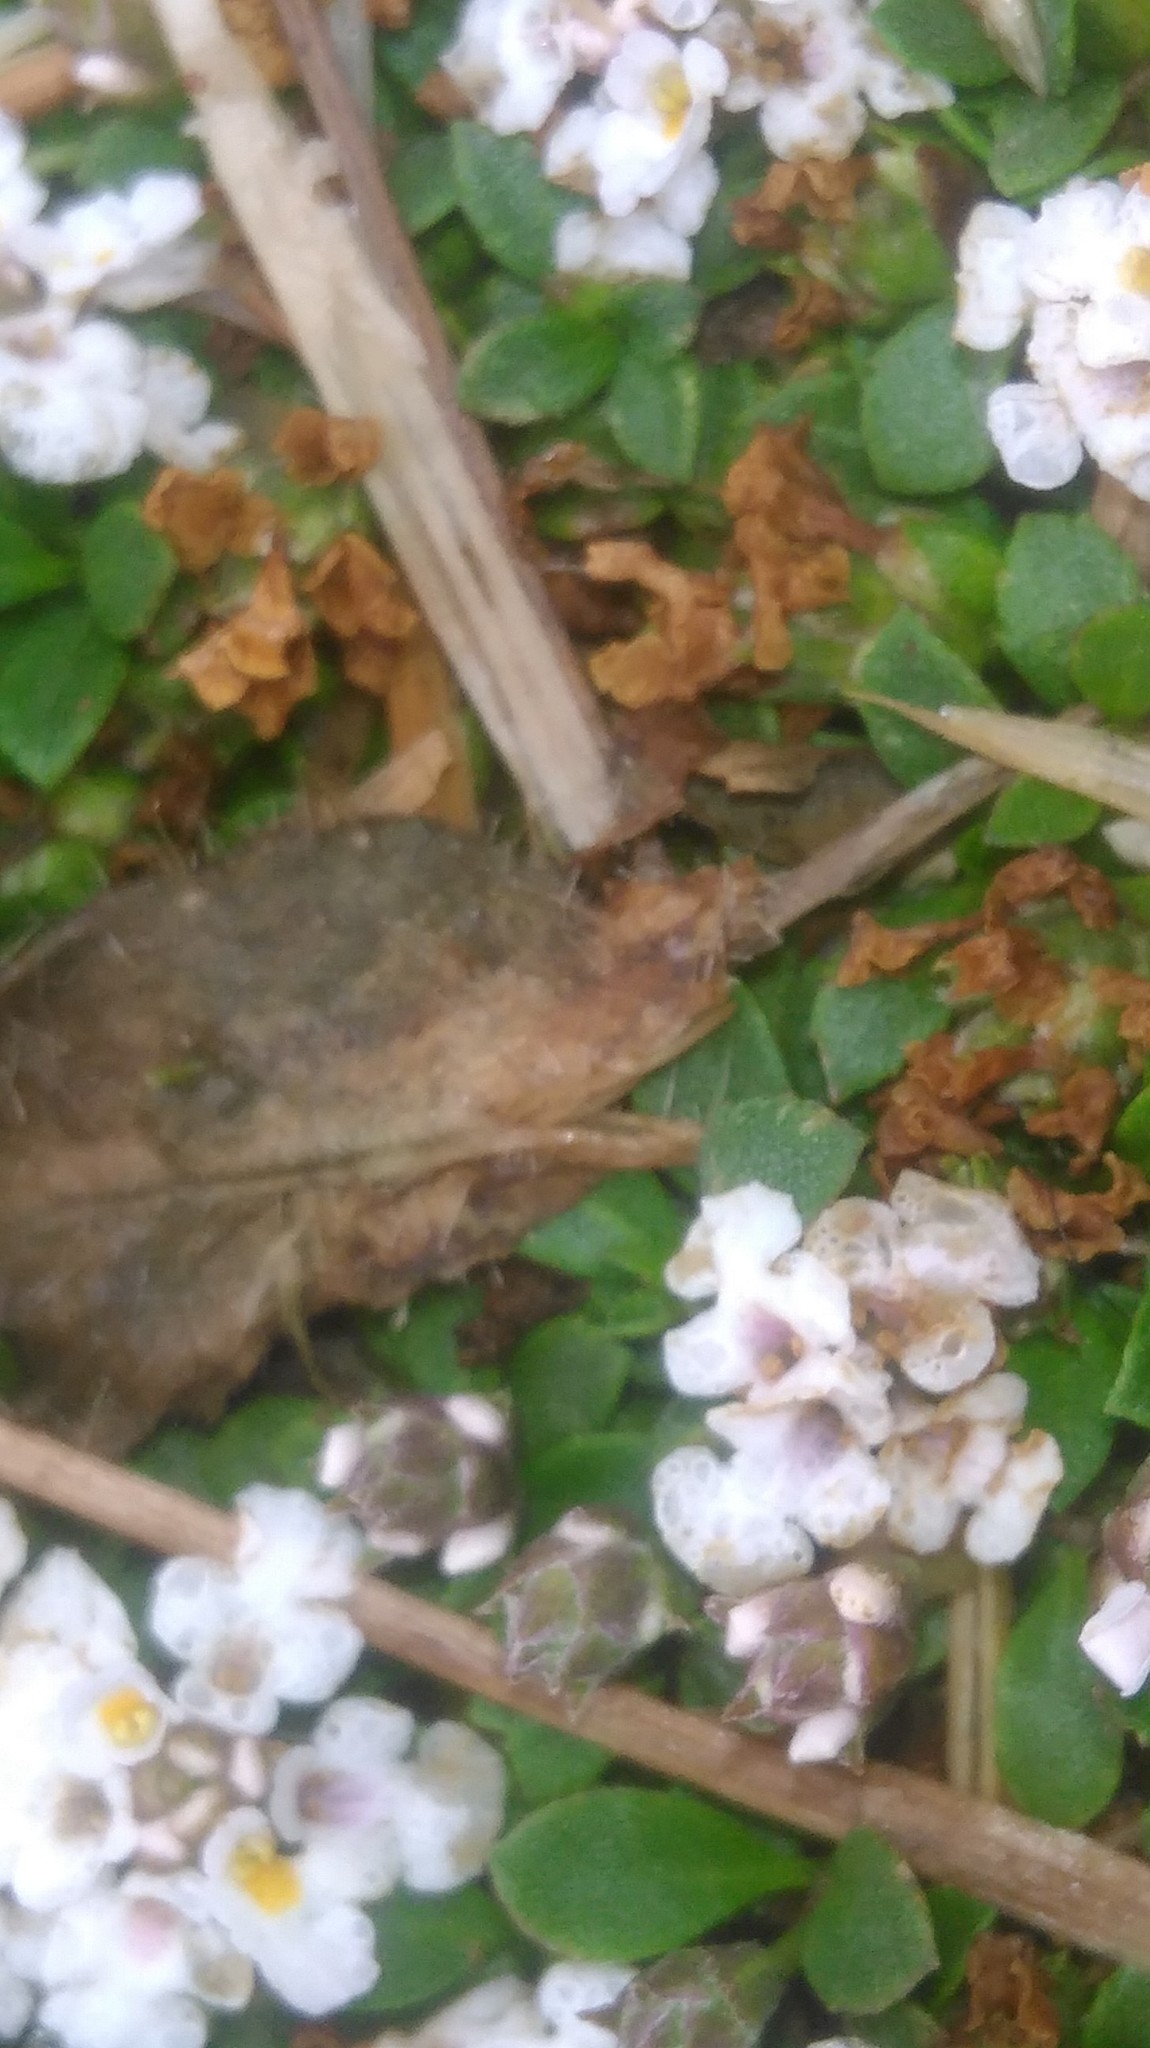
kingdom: Plantae
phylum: Tracheophyta
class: Magnoliopsida
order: Lamiales
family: Verbenaceae
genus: Phyla
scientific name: Phyla nodiflora
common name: Frogfruit
